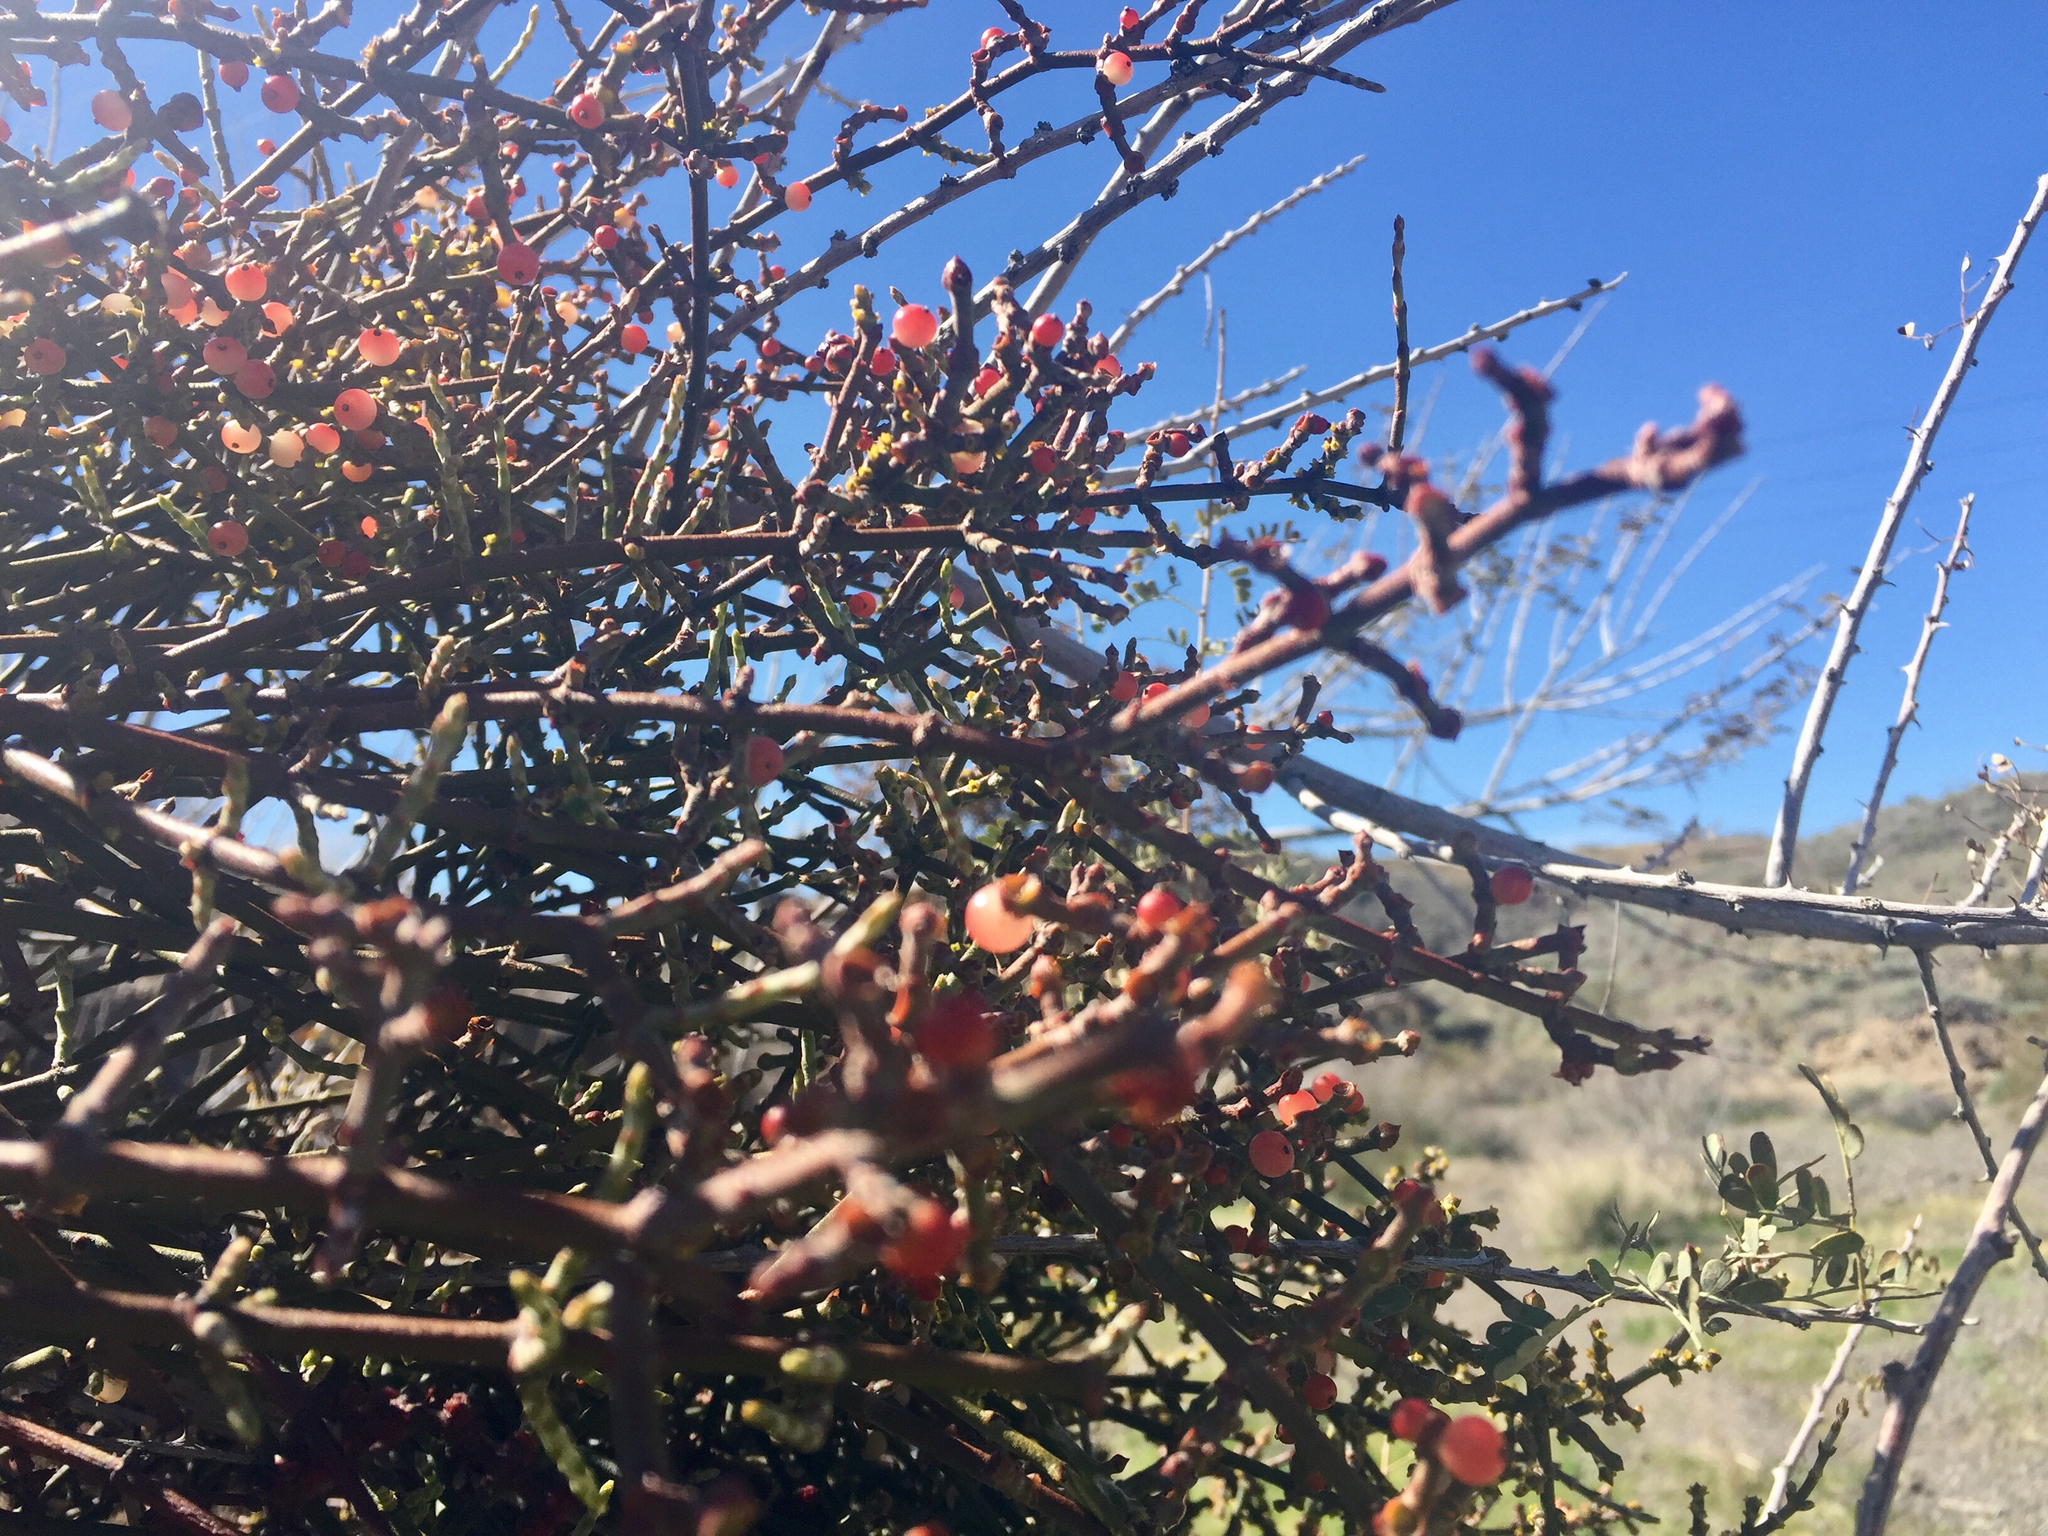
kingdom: Plantae
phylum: Tracheophyta
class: Magnoliopsida
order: Santalales
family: Viscaceae
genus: Phoradendron
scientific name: Phoradendron californicum
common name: Acacia mistletoe
